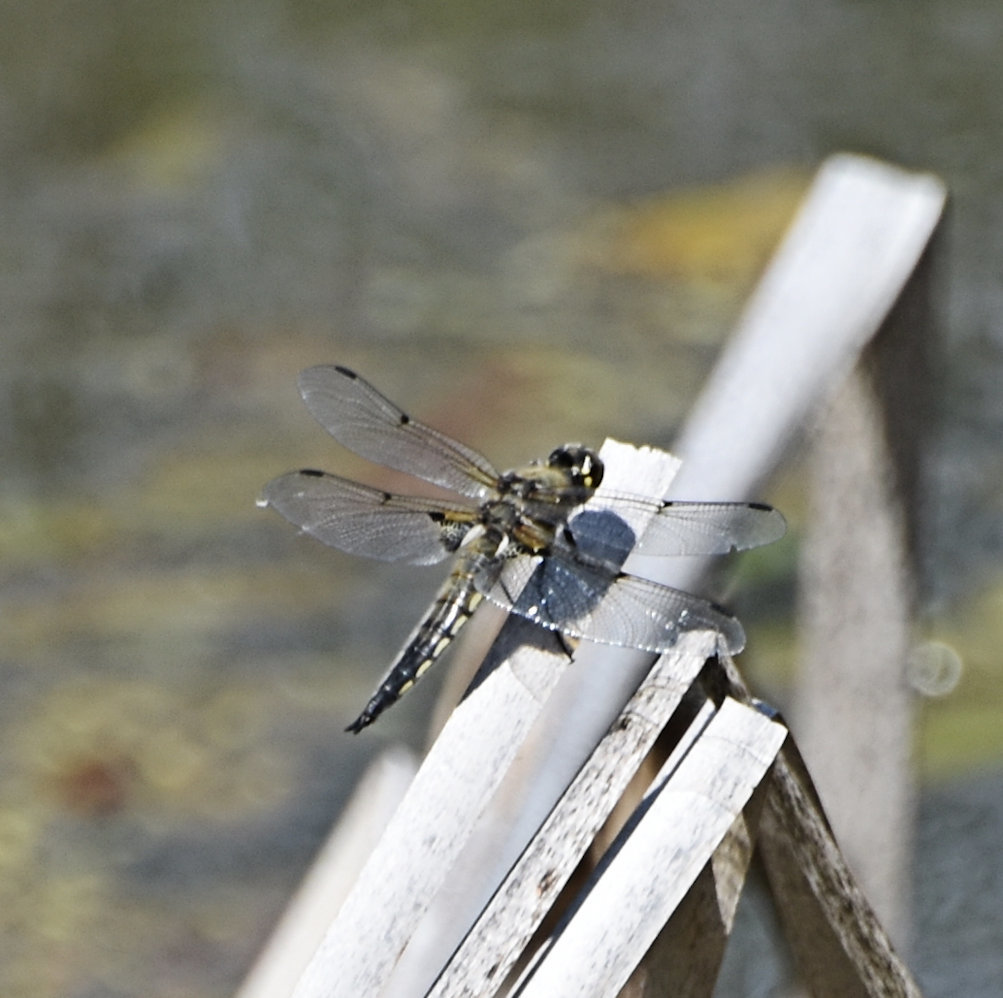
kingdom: Animalia
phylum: Arthropoda
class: Insecta
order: Odonata
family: Libellulidae
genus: Libellula
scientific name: Libellula quadrimaculata
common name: Four-spotted chaser
